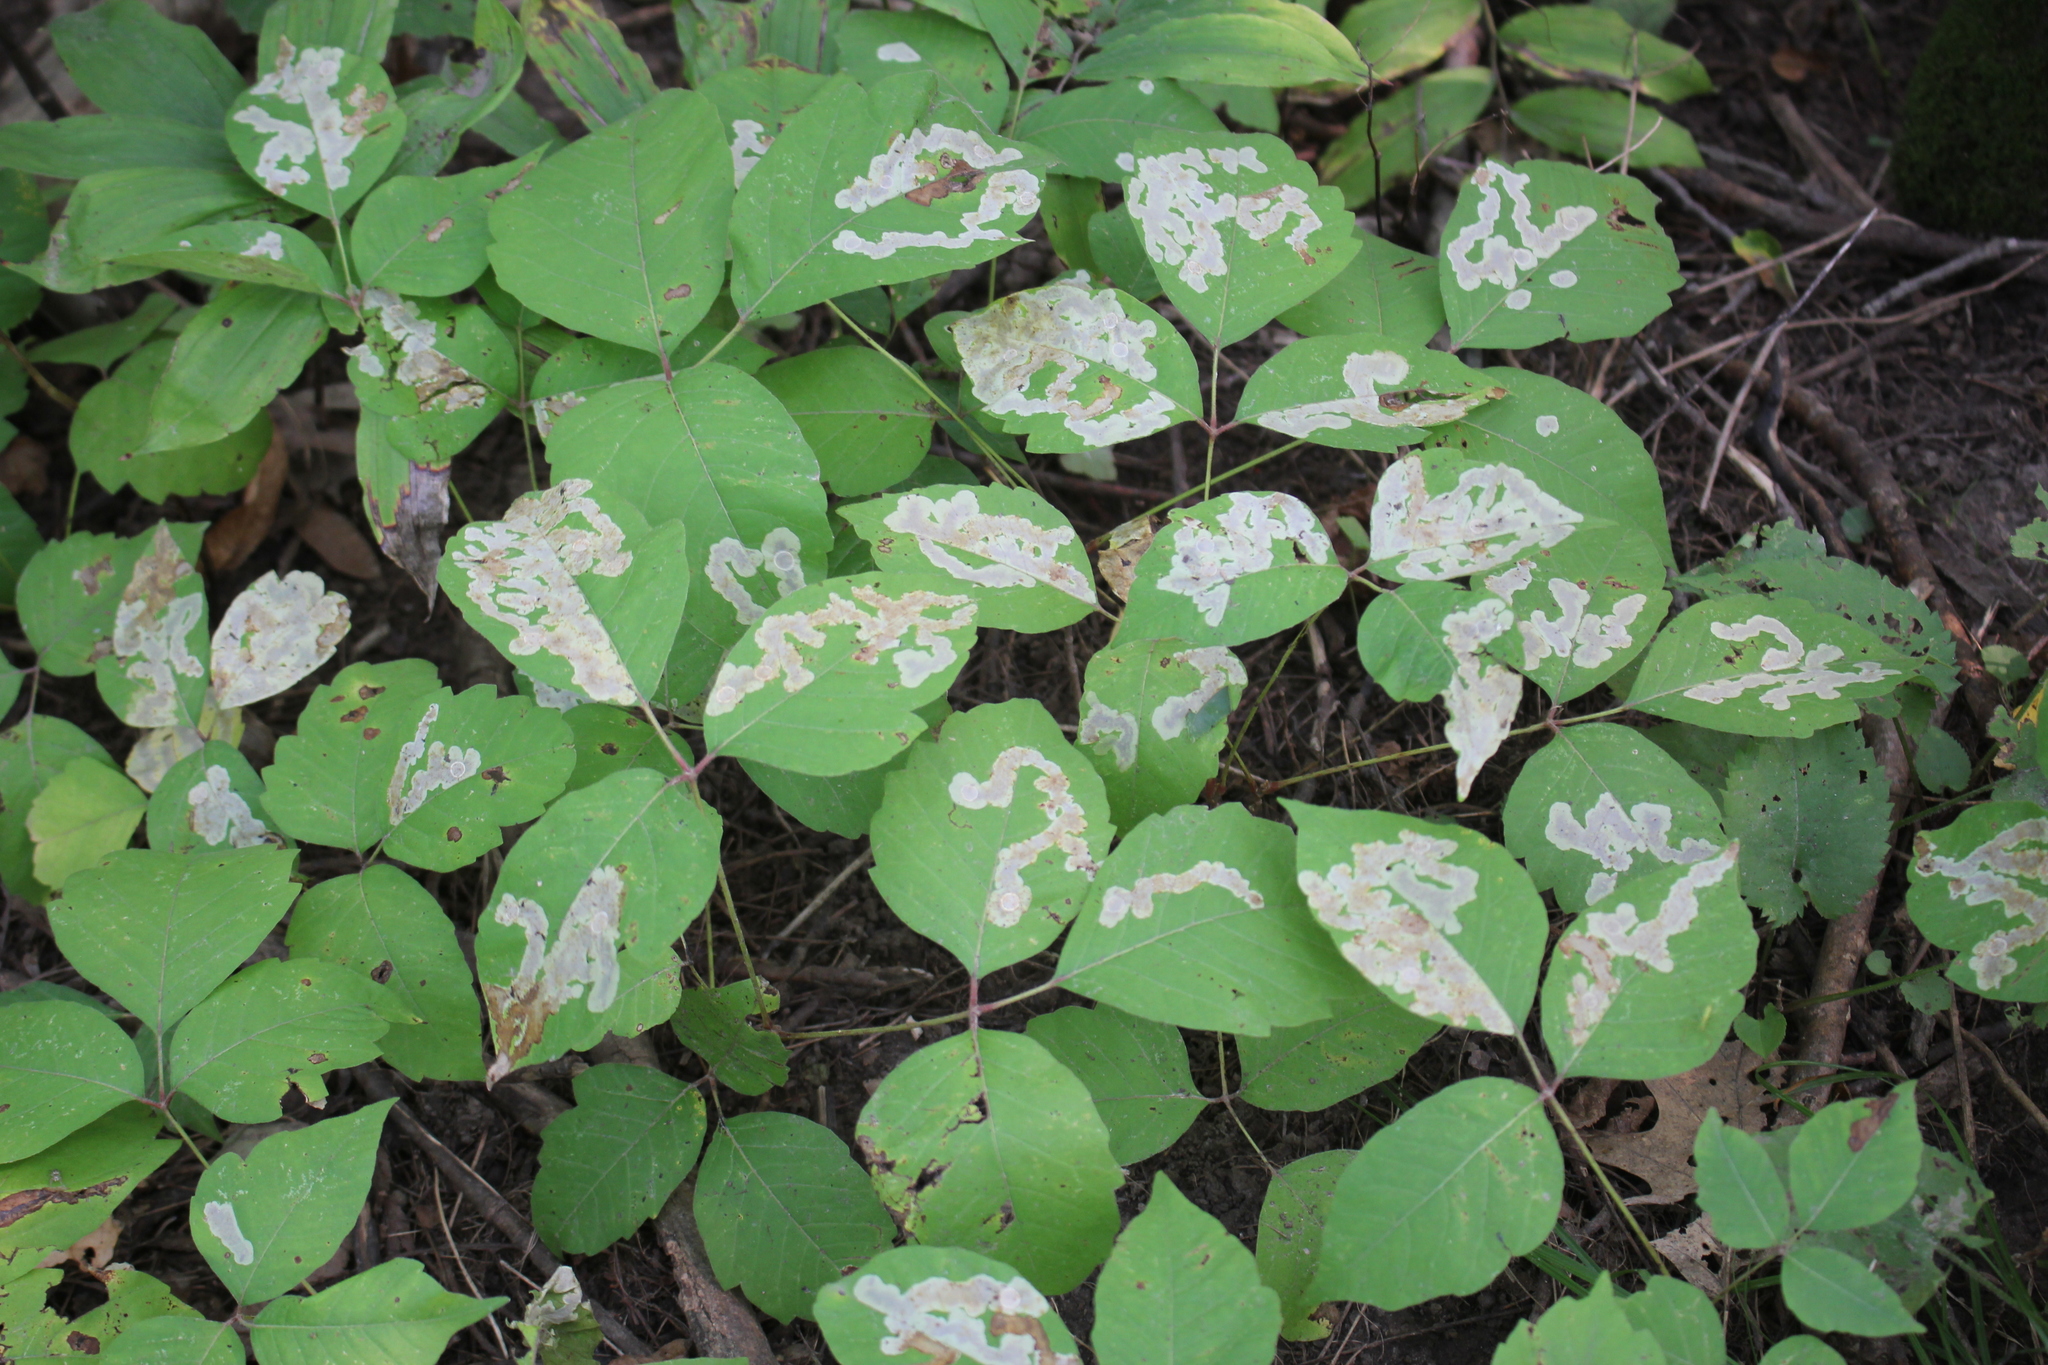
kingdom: Animalia
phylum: Arthropoda
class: Insecta
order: Lepidoptera
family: Gracillariidae
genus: Cameraria
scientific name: Cameraria guttifinitella
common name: Poison ivy leaf-miner moth
